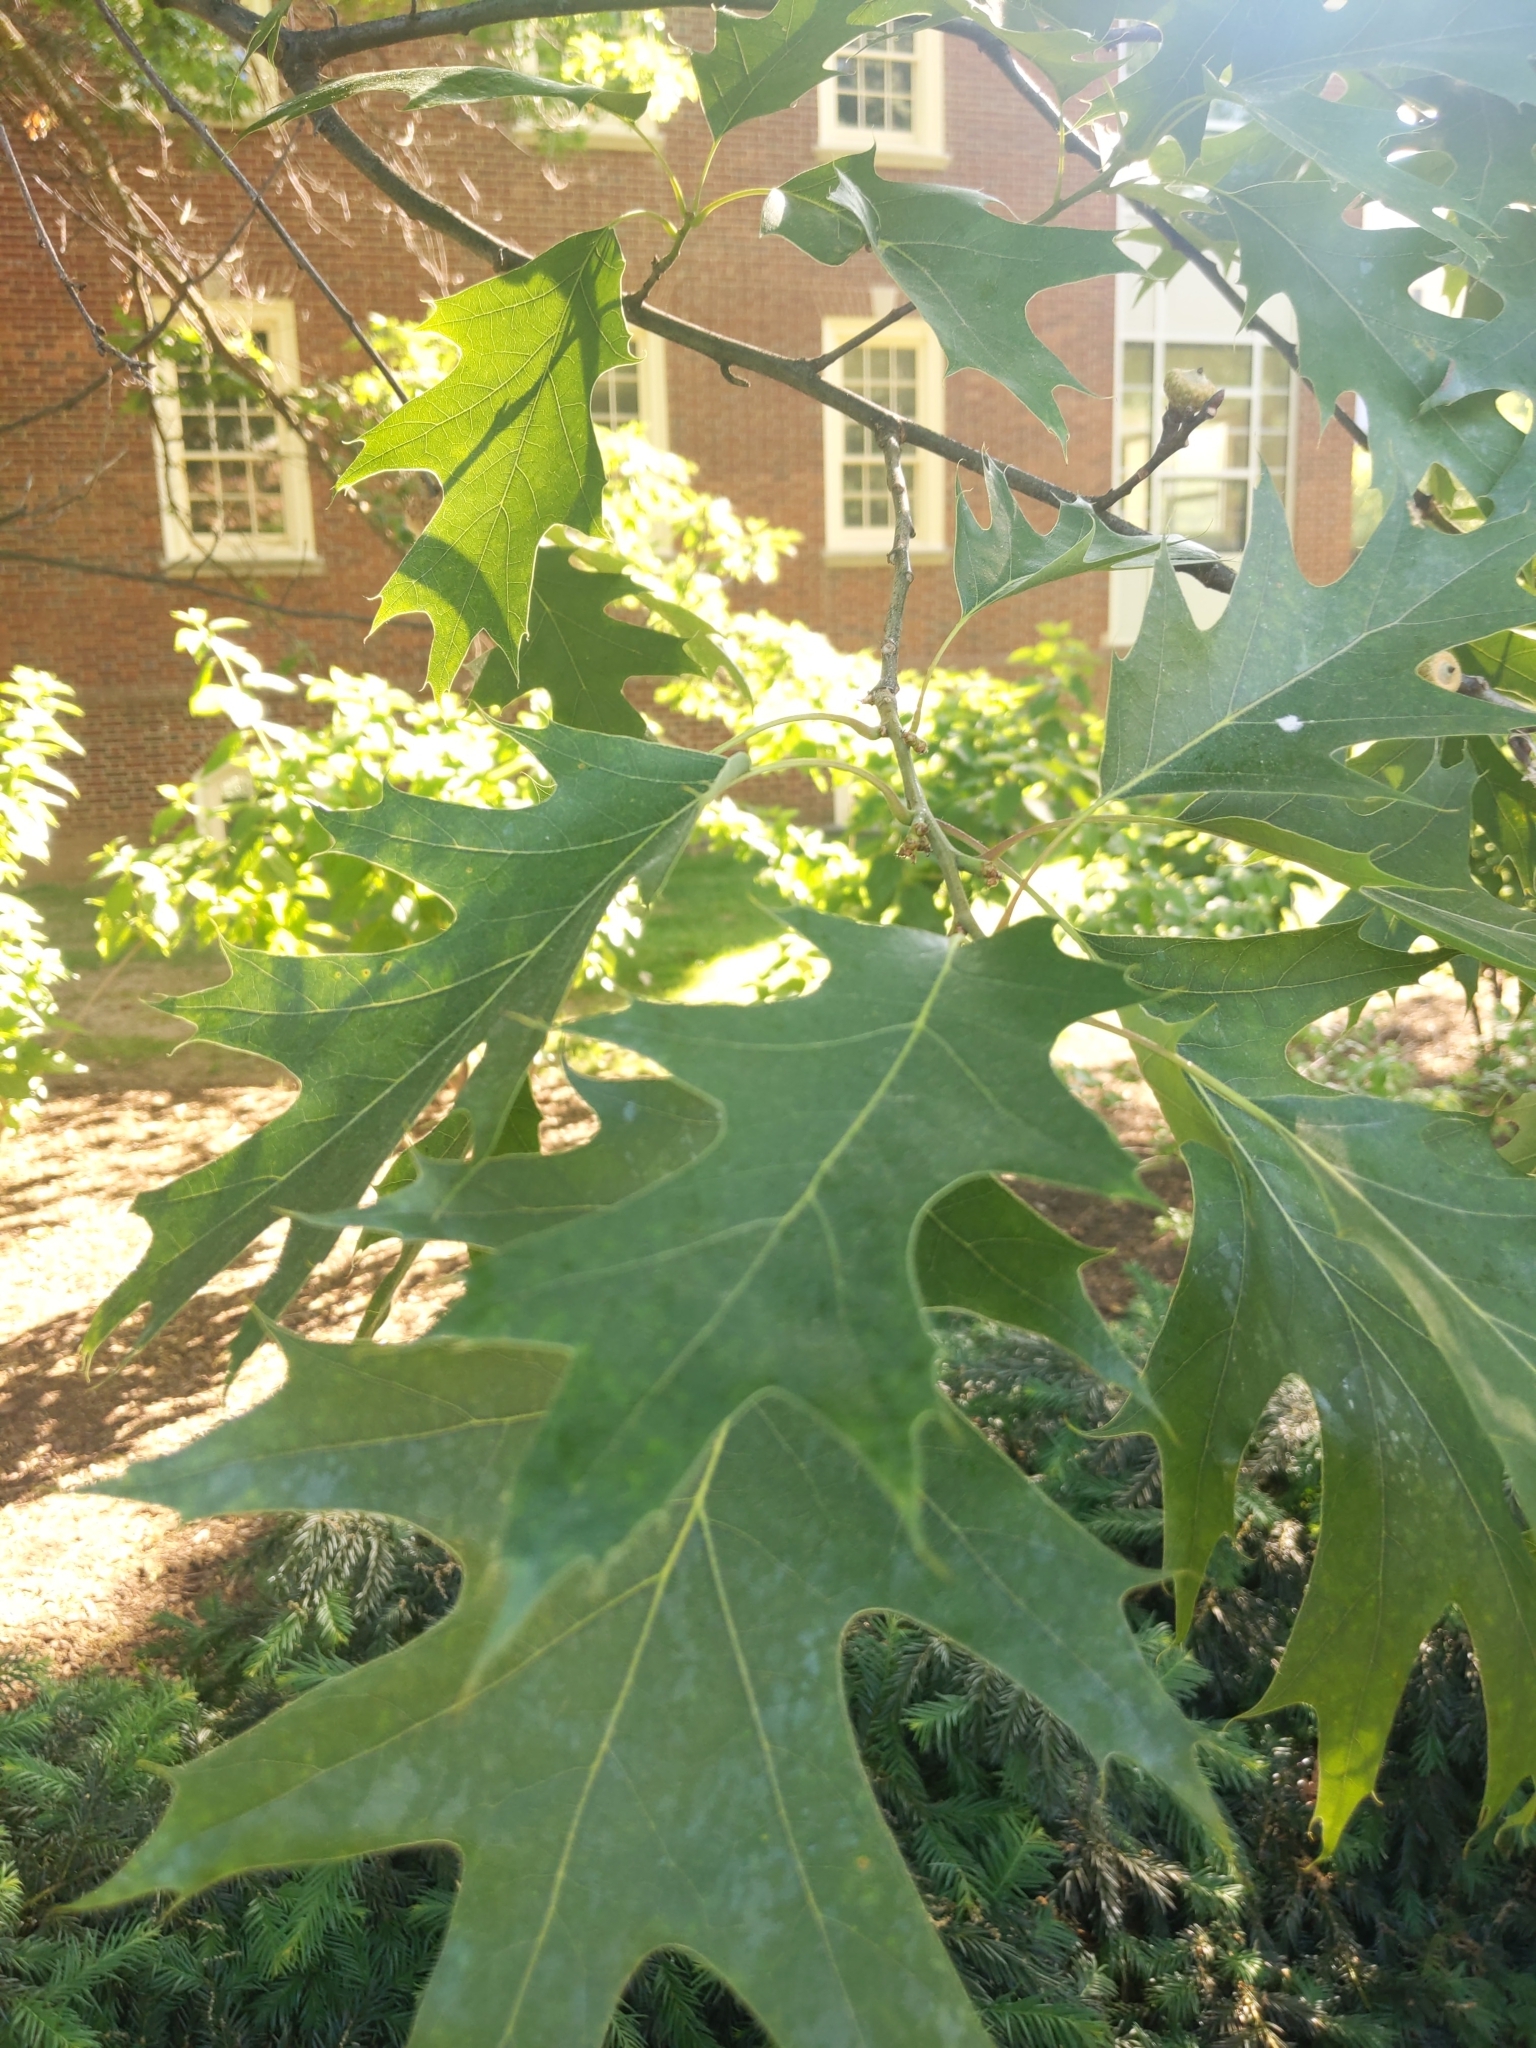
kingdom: Animalia
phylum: Arthropoda
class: Insecta
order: Hymenoptera
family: Cynipidae
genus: Callirhytis
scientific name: Callirhytis
